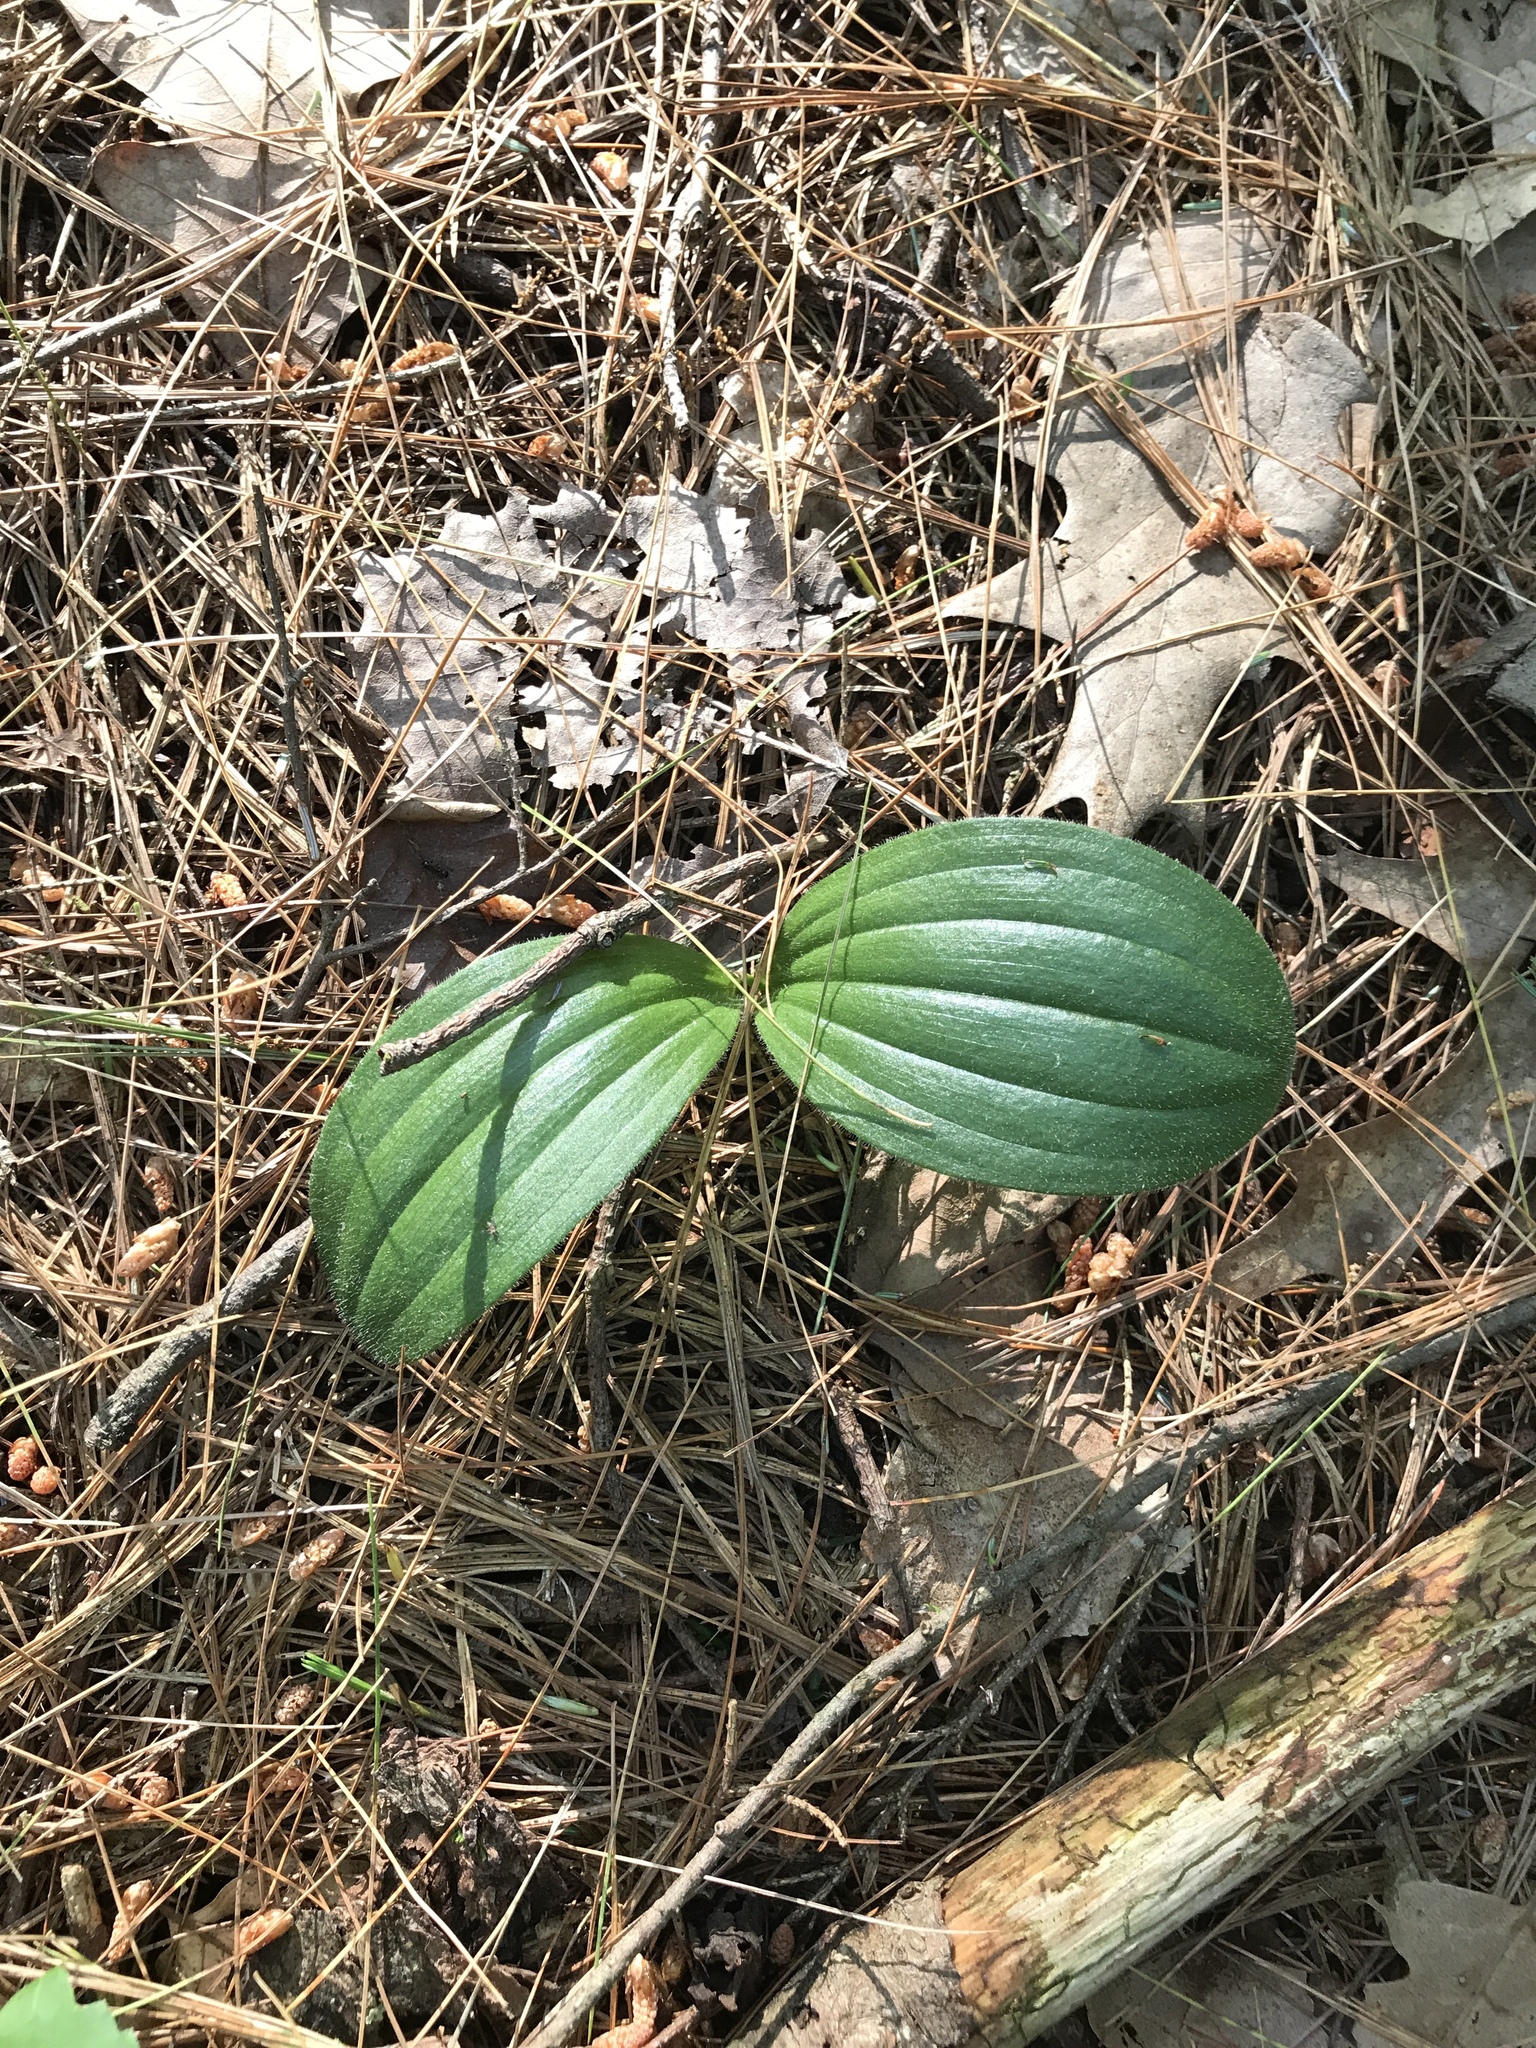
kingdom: Plantae
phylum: Tracheophyta
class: Liliopsida
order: Asparagales
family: Orchidaceae
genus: Cypripedium
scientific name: Cypripedium acaule
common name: Pink lady's-slipper
